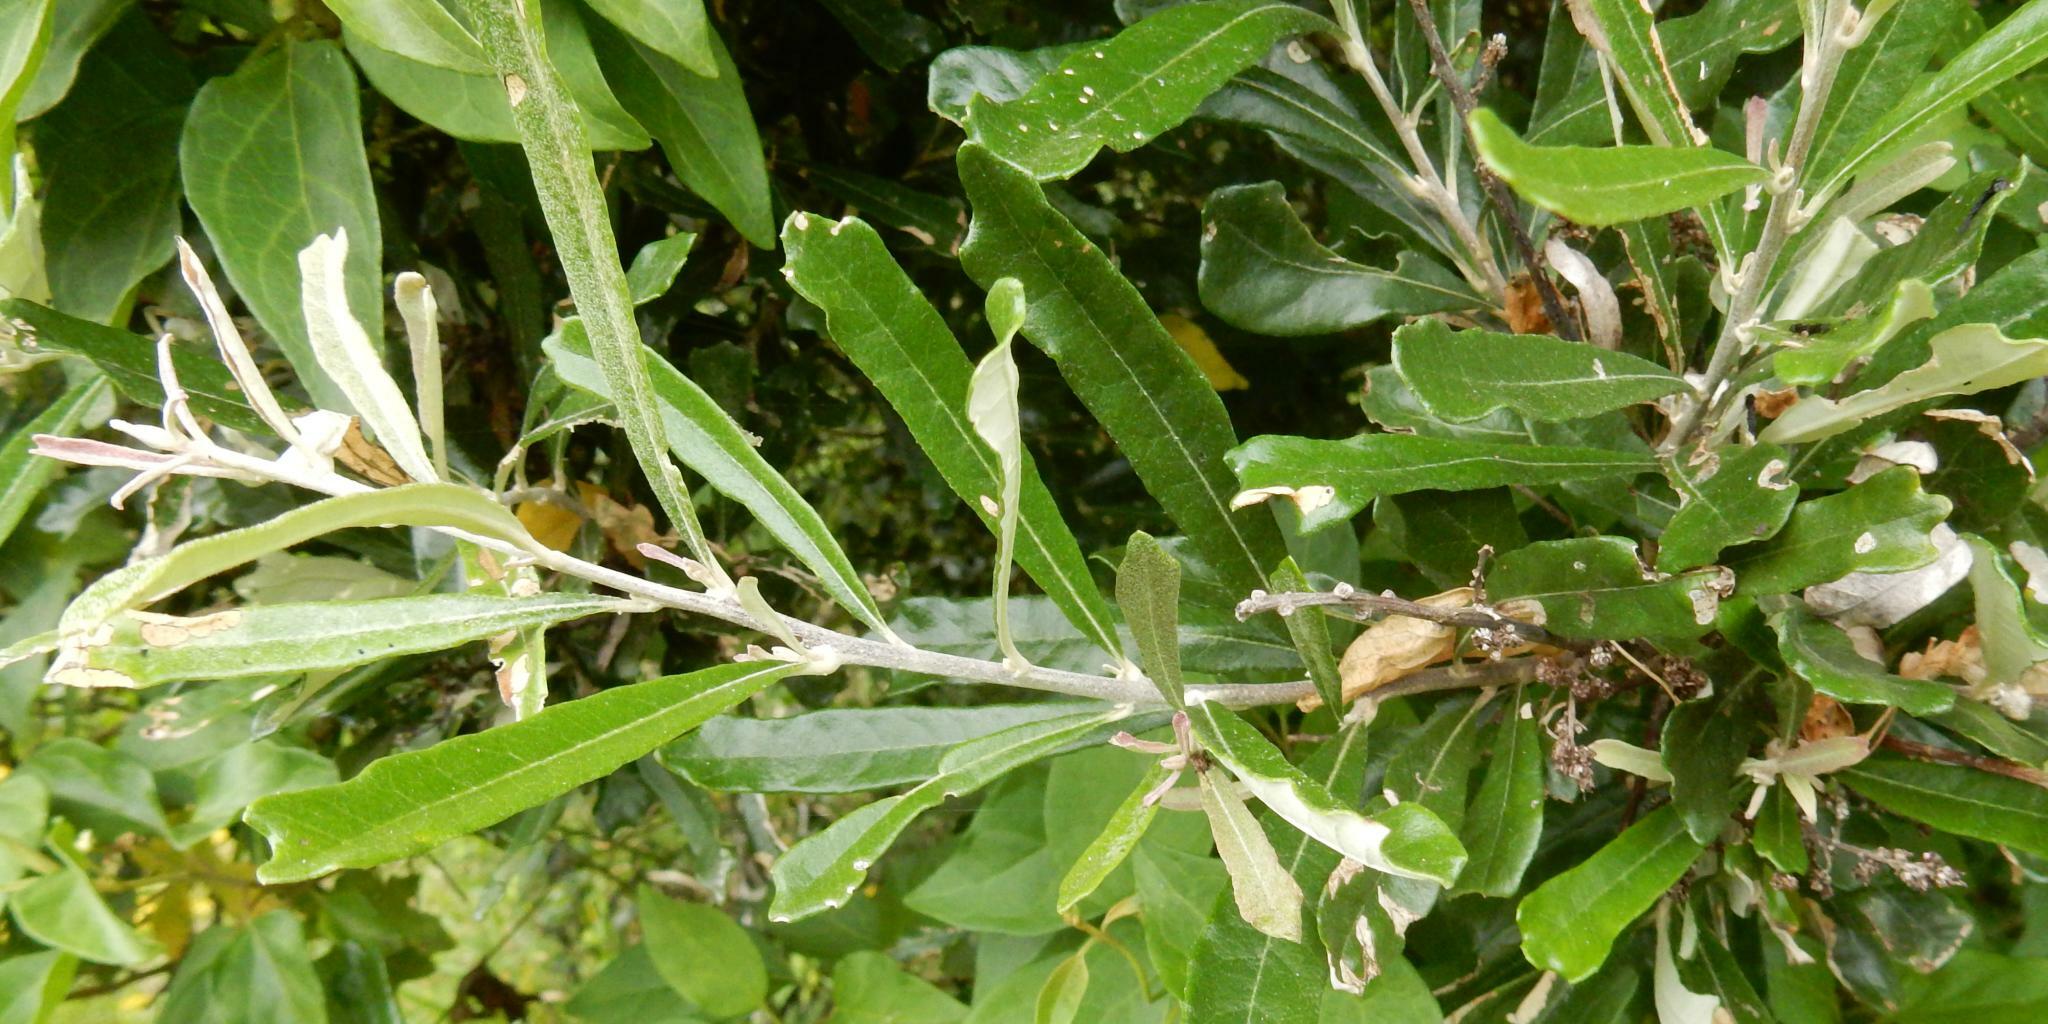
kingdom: Plantae
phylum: Tracheophyta
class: Magnoliopsida
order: Asterales
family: Asteraceae
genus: Brachylaena
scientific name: Brachylaena elliptica
